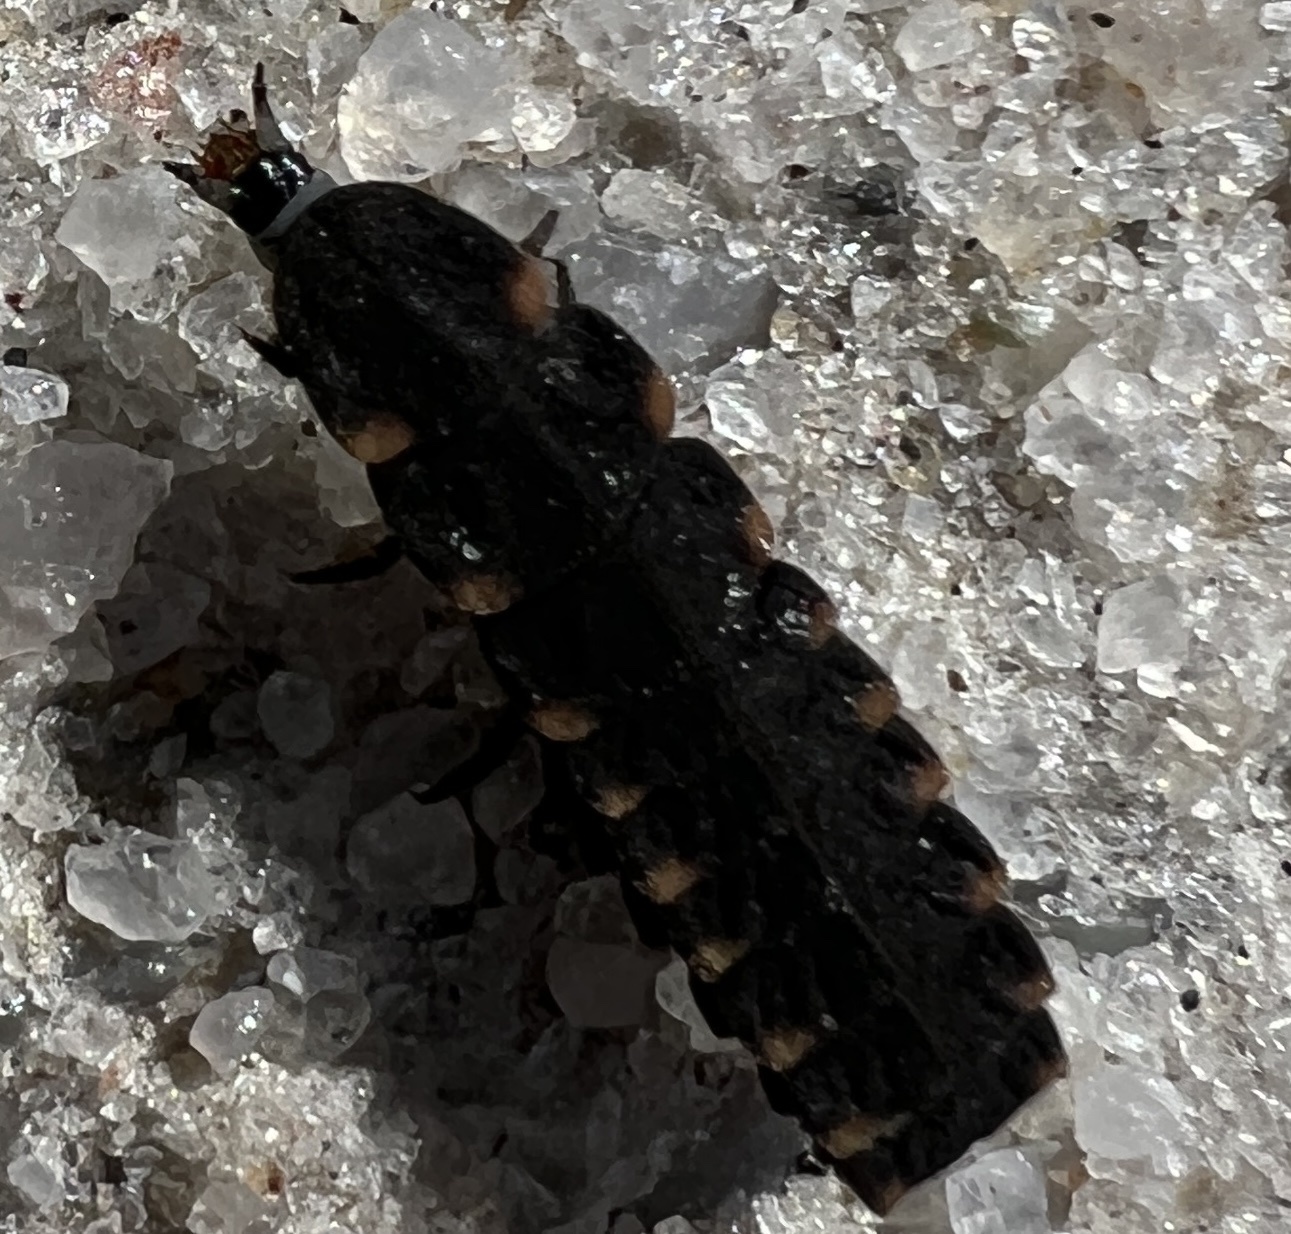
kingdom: Animalia
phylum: Arthropoda
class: Insecta
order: Coleoptera
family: Lampyridae
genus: Lampyris
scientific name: Lampyris noctiluca
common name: Glow-worm
